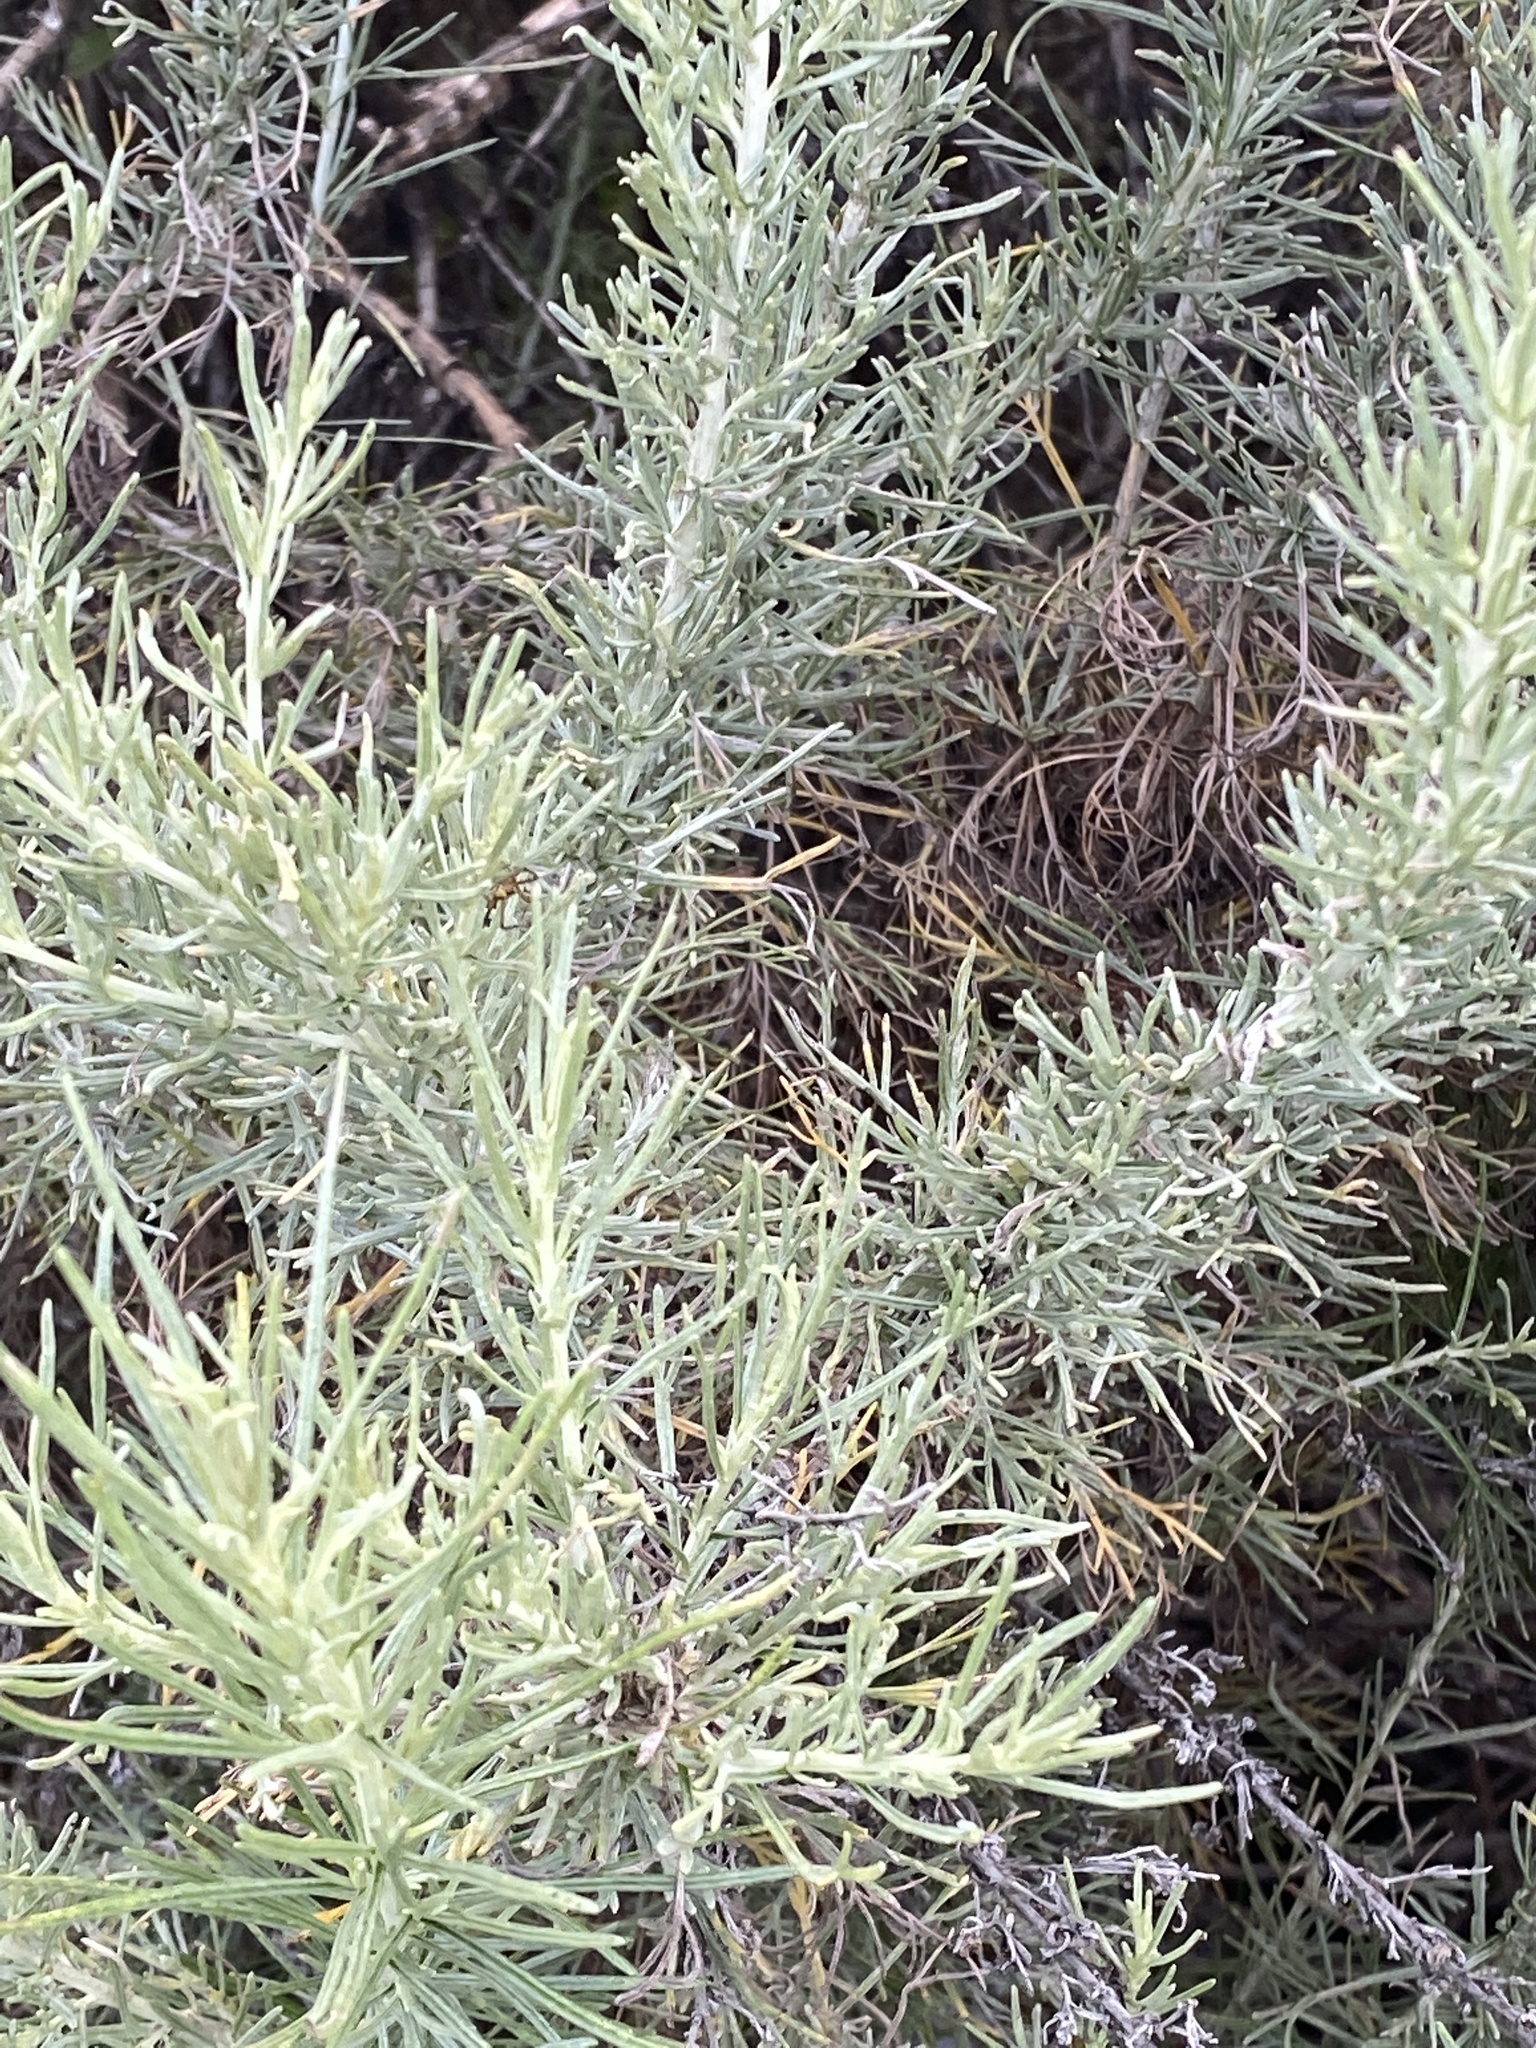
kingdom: Plantae
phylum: Tracheophyta
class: Magnoliopsida
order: Asterales
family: Asteraceae
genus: Artemisia
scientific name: Artemisia californica
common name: California sagebrush
